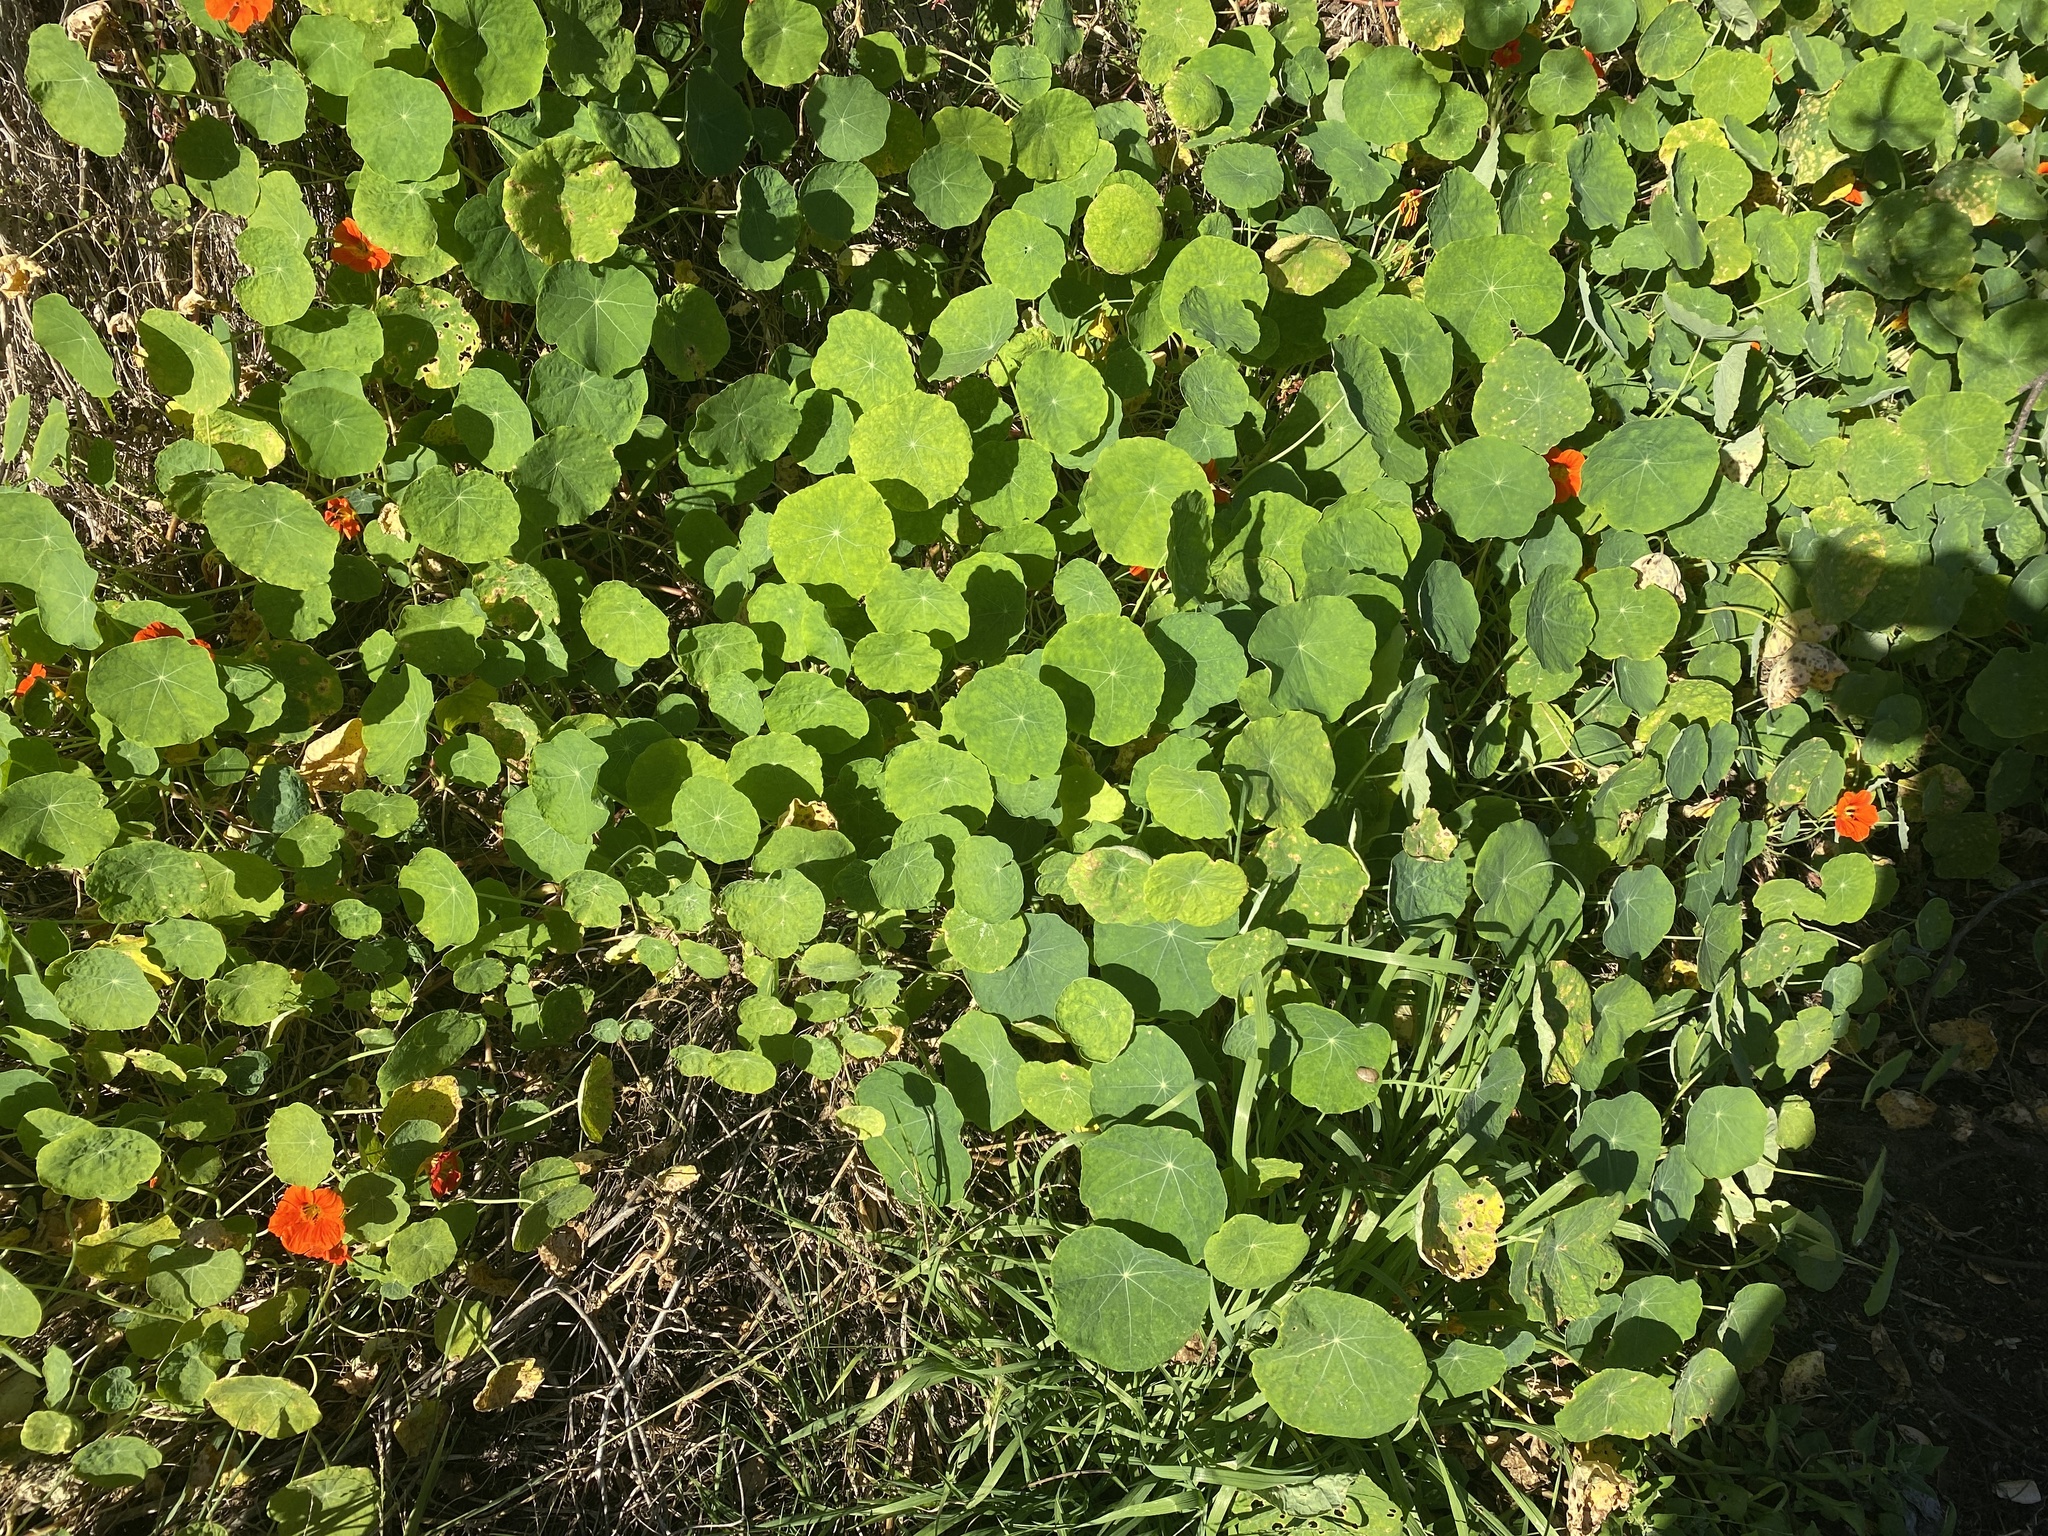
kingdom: Plantae
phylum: Tracheophyta
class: Magnoliopsida
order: Brassicales
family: Tropaeolaceae
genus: Tropaeolum
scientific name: Tropaeolum majus
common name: Nasturtium
